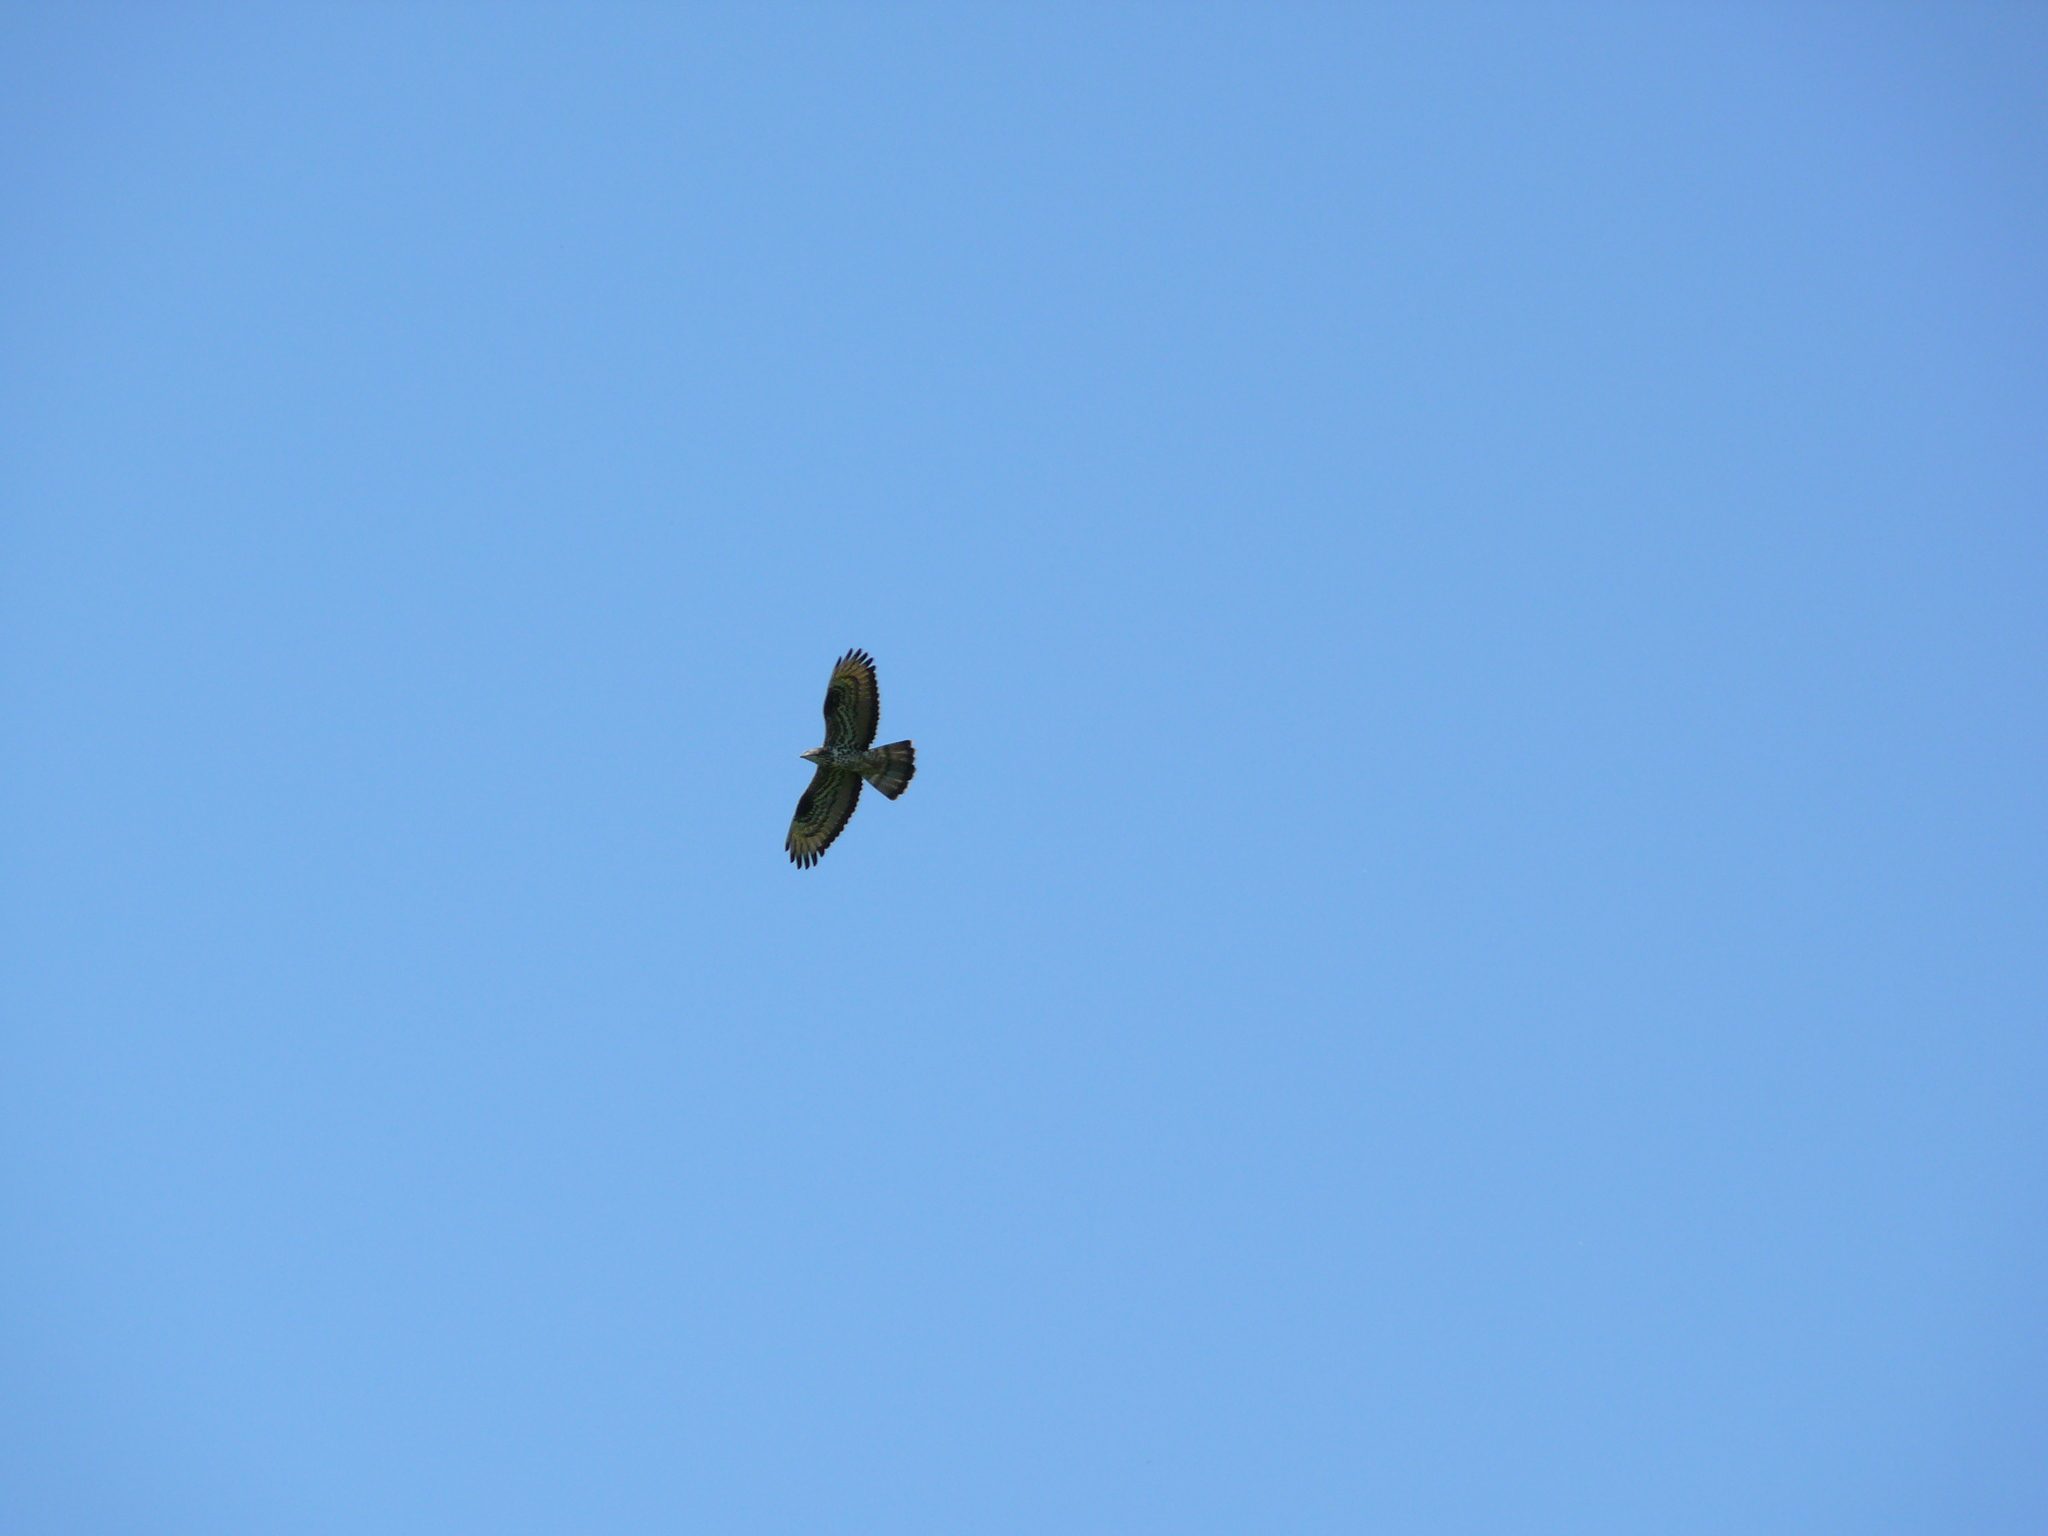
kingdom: Animalia
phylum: Chordata
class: Aves
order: Accipitriformes
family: Accipitridae
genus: Pernis
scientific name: Pernis apivorus
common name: European honey buzzard
